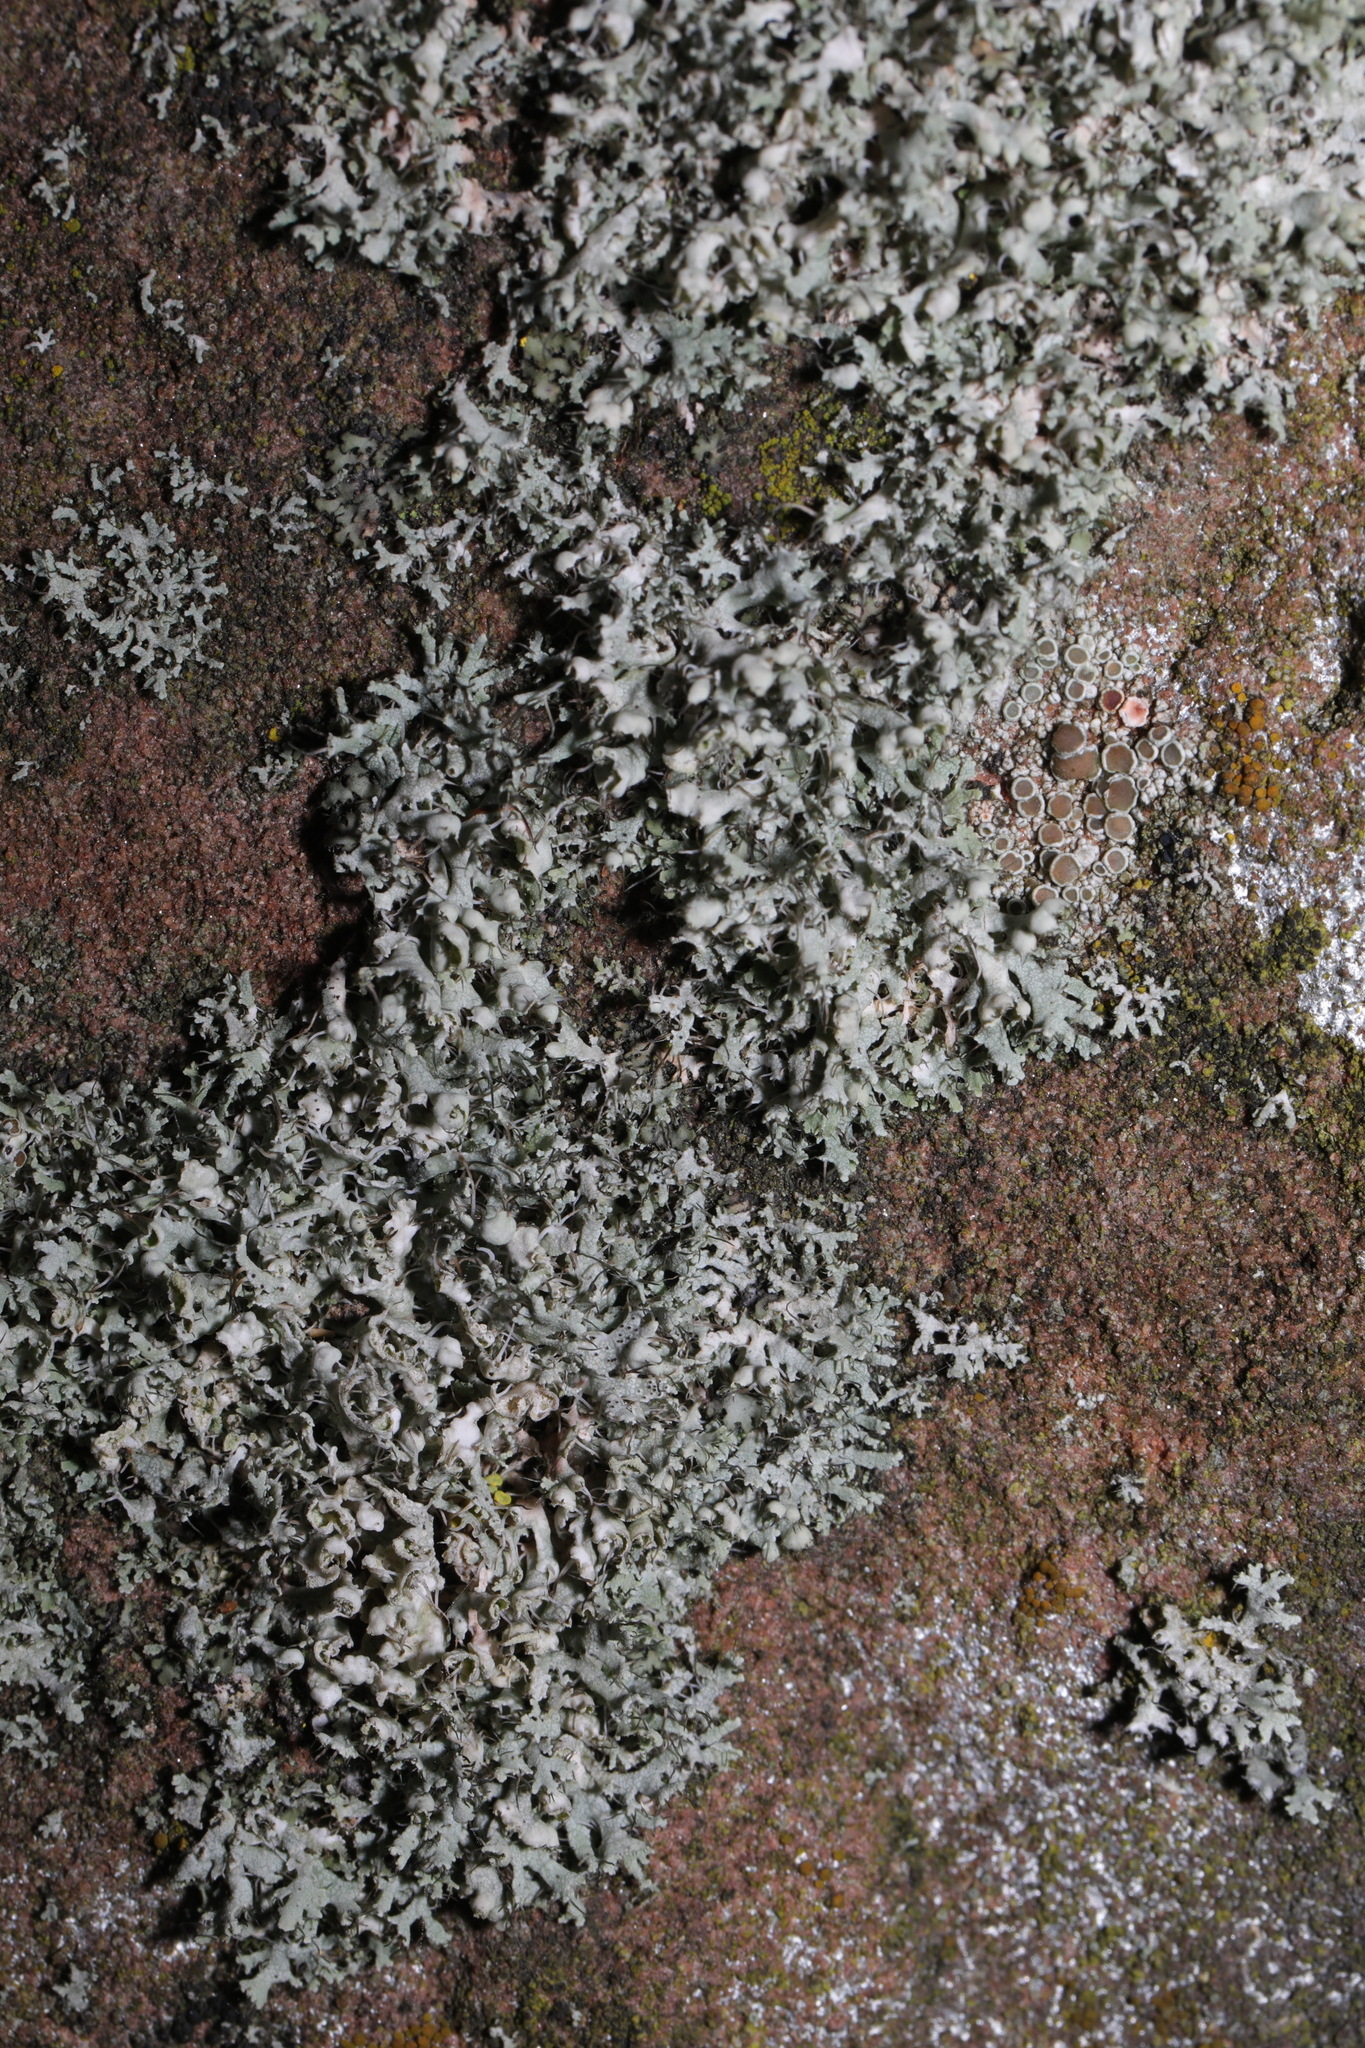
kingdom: Fungi
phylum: Ascomycota
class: Lecanoromycetes
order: Caliciales
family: Physciaceae
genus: Physcia
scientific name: Physcia adscendens
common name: Hooded rosette lichen
